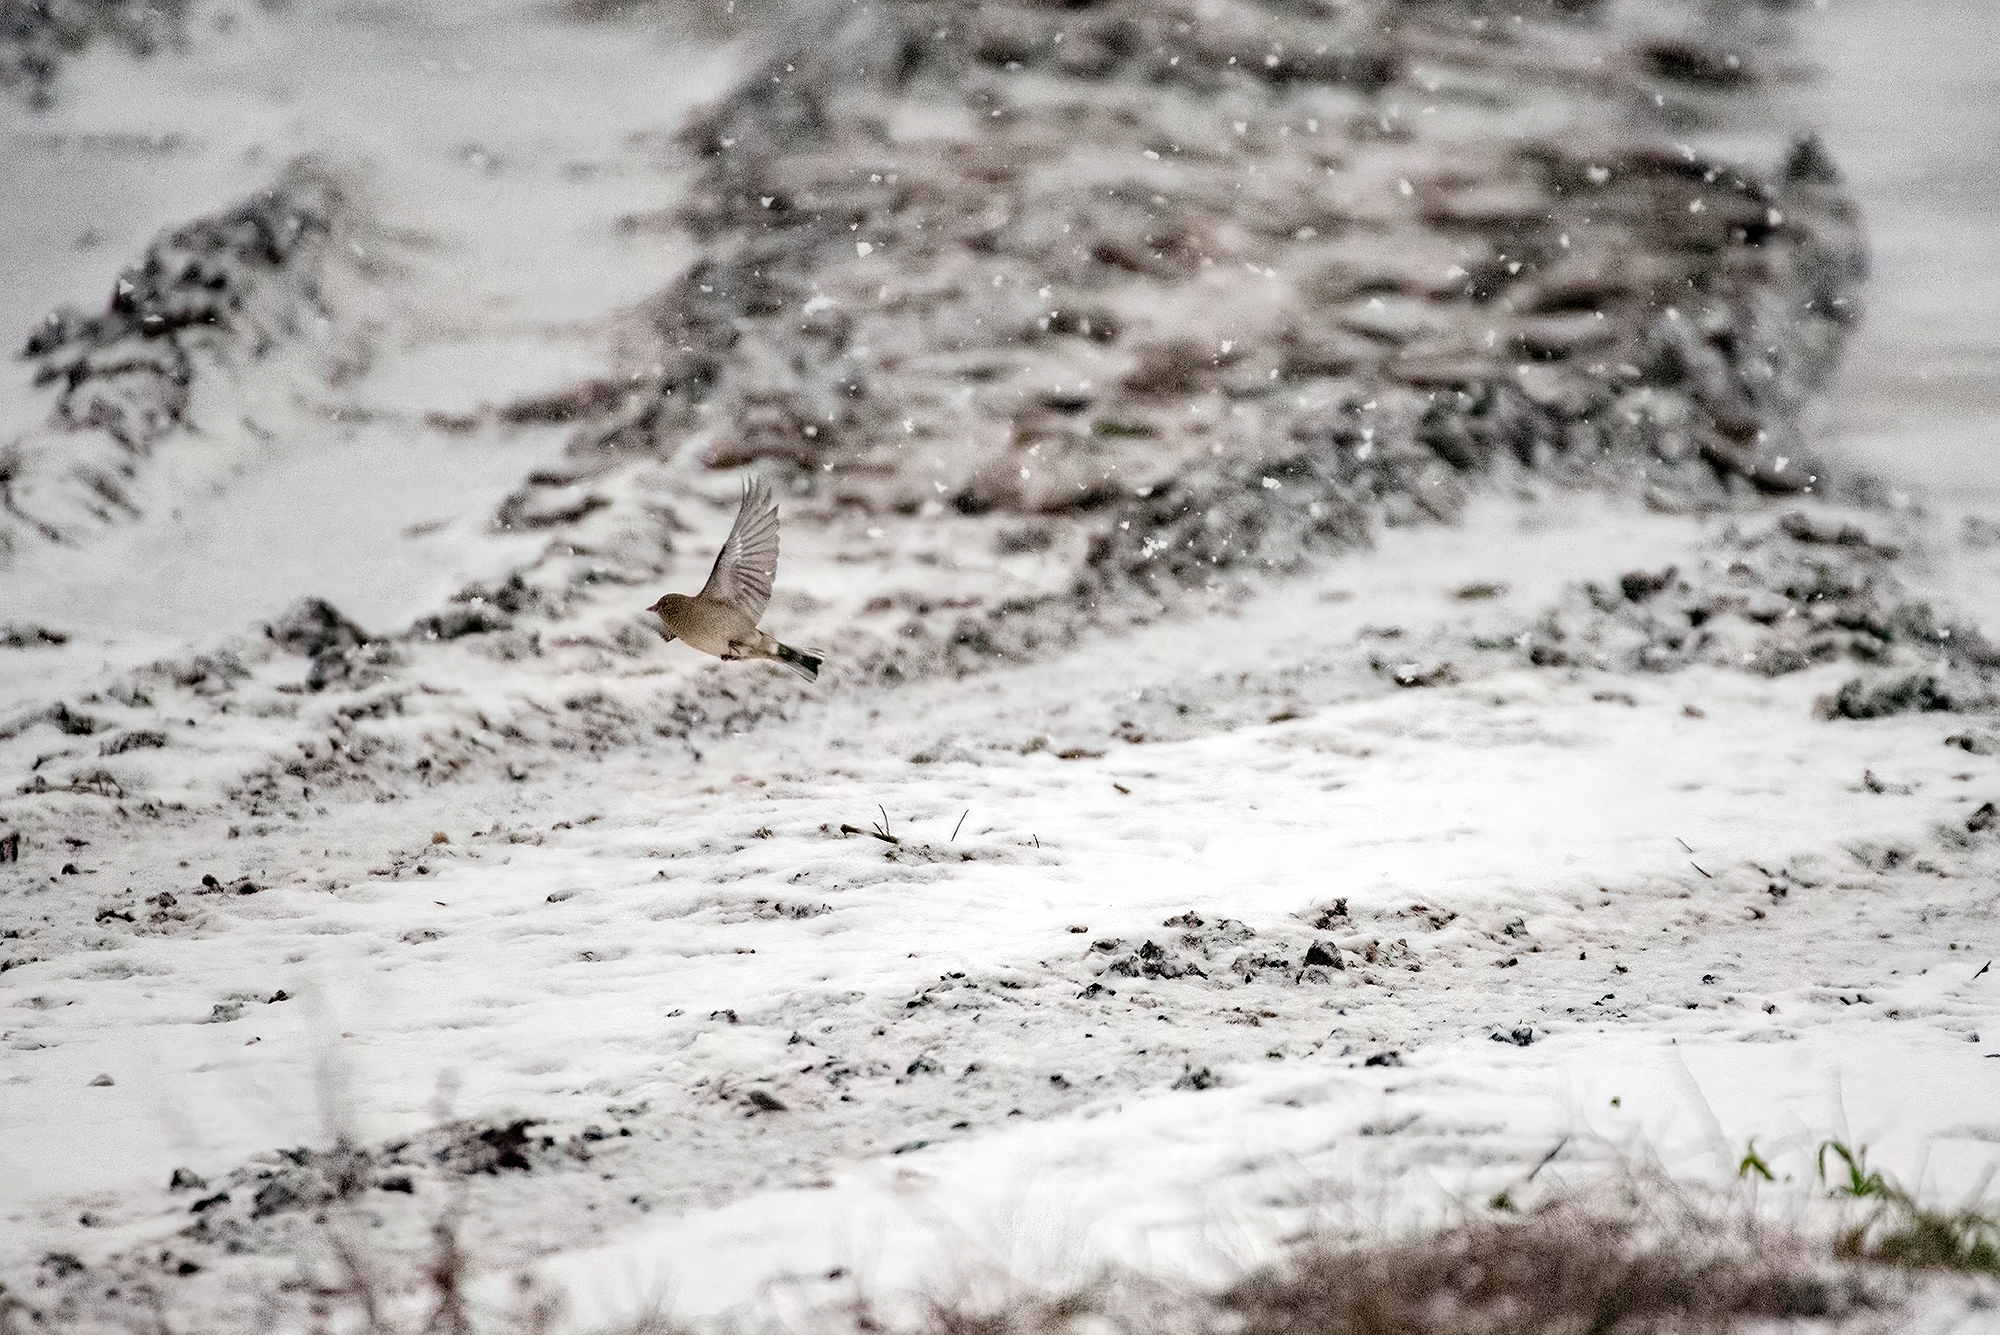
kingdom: Animalia
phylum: Chordata
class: Aves
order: Passeriformes
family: Fringillidae
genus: Fringilla
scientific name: Fringilla coelebs
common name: Common chaffinch
